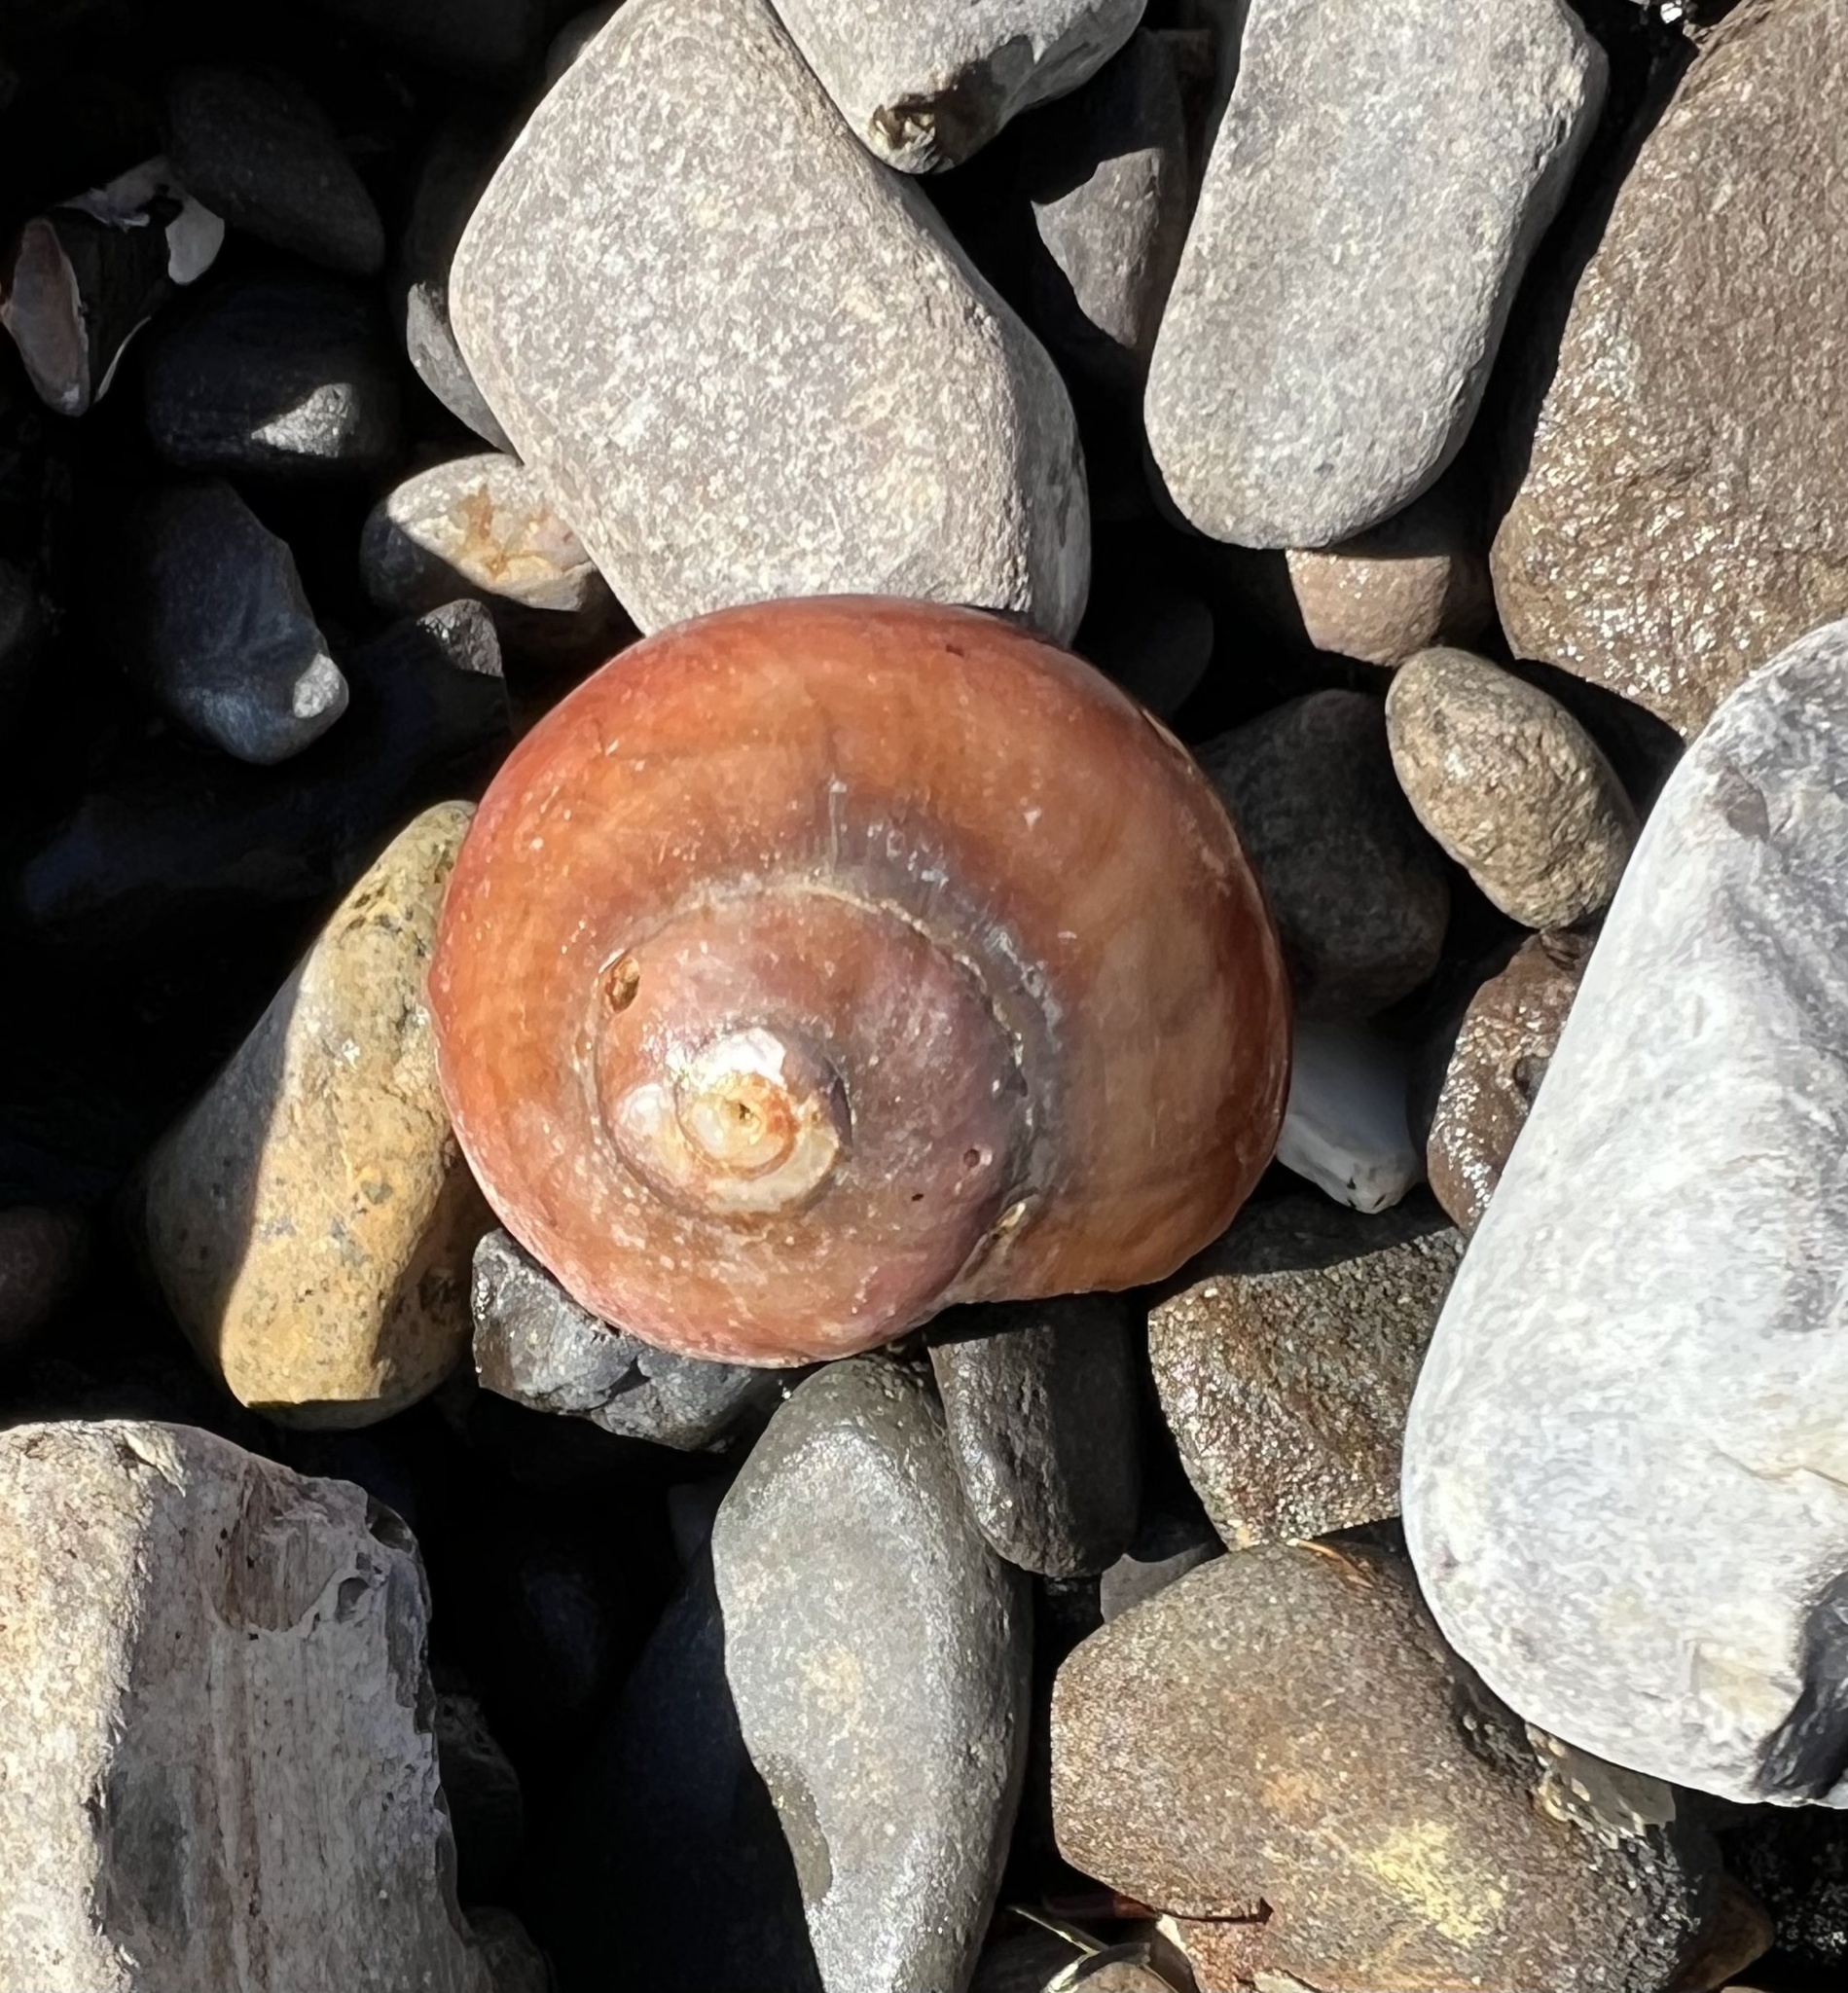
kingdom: Animalia
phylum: Mollusca
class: Gastropoda
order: Trochida
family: Tegulidae
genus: Norrisia
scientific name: Norrisia norrisii
